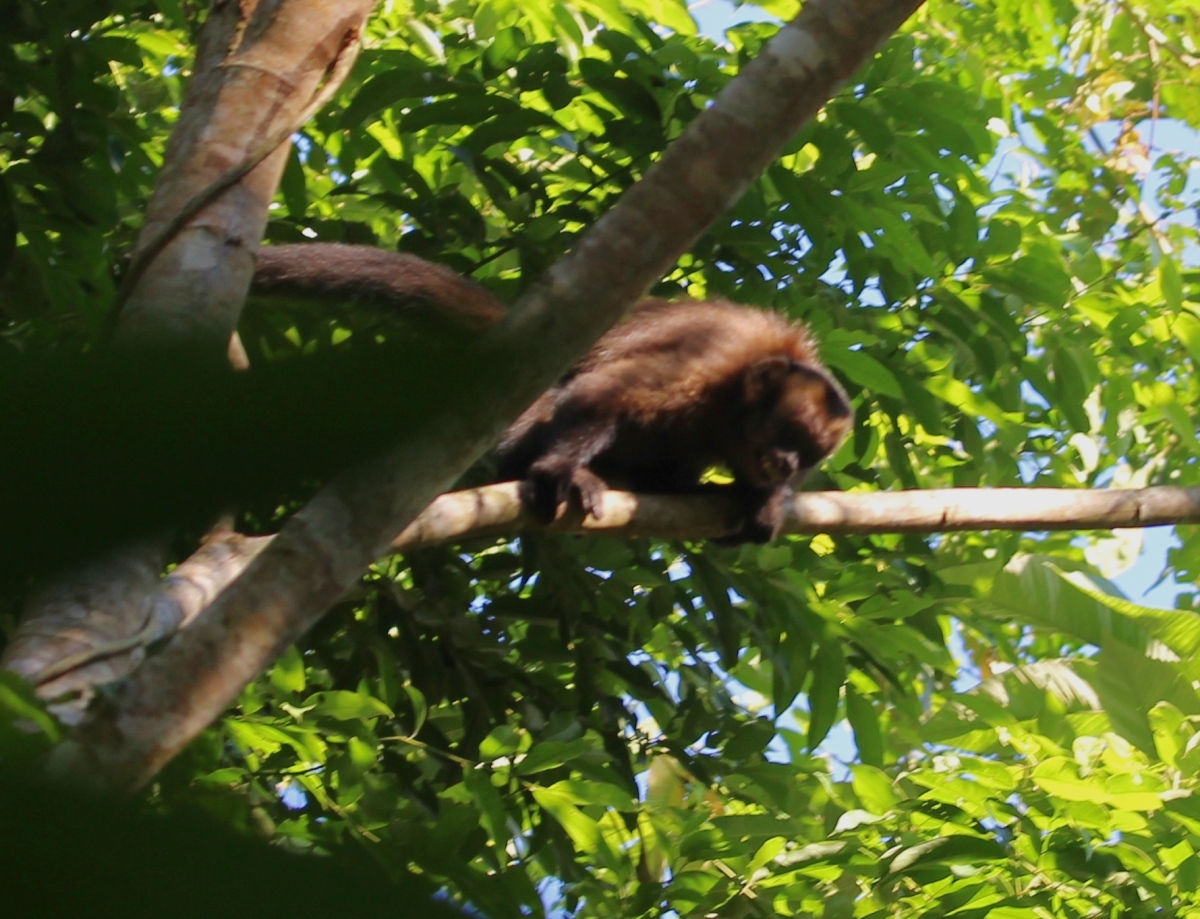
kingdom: Animalia
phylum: Chordata
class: Mammalia
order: Primates
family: Cebidae
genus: Sapajus
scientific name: Sapajus apella
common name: Tufted capuchin
